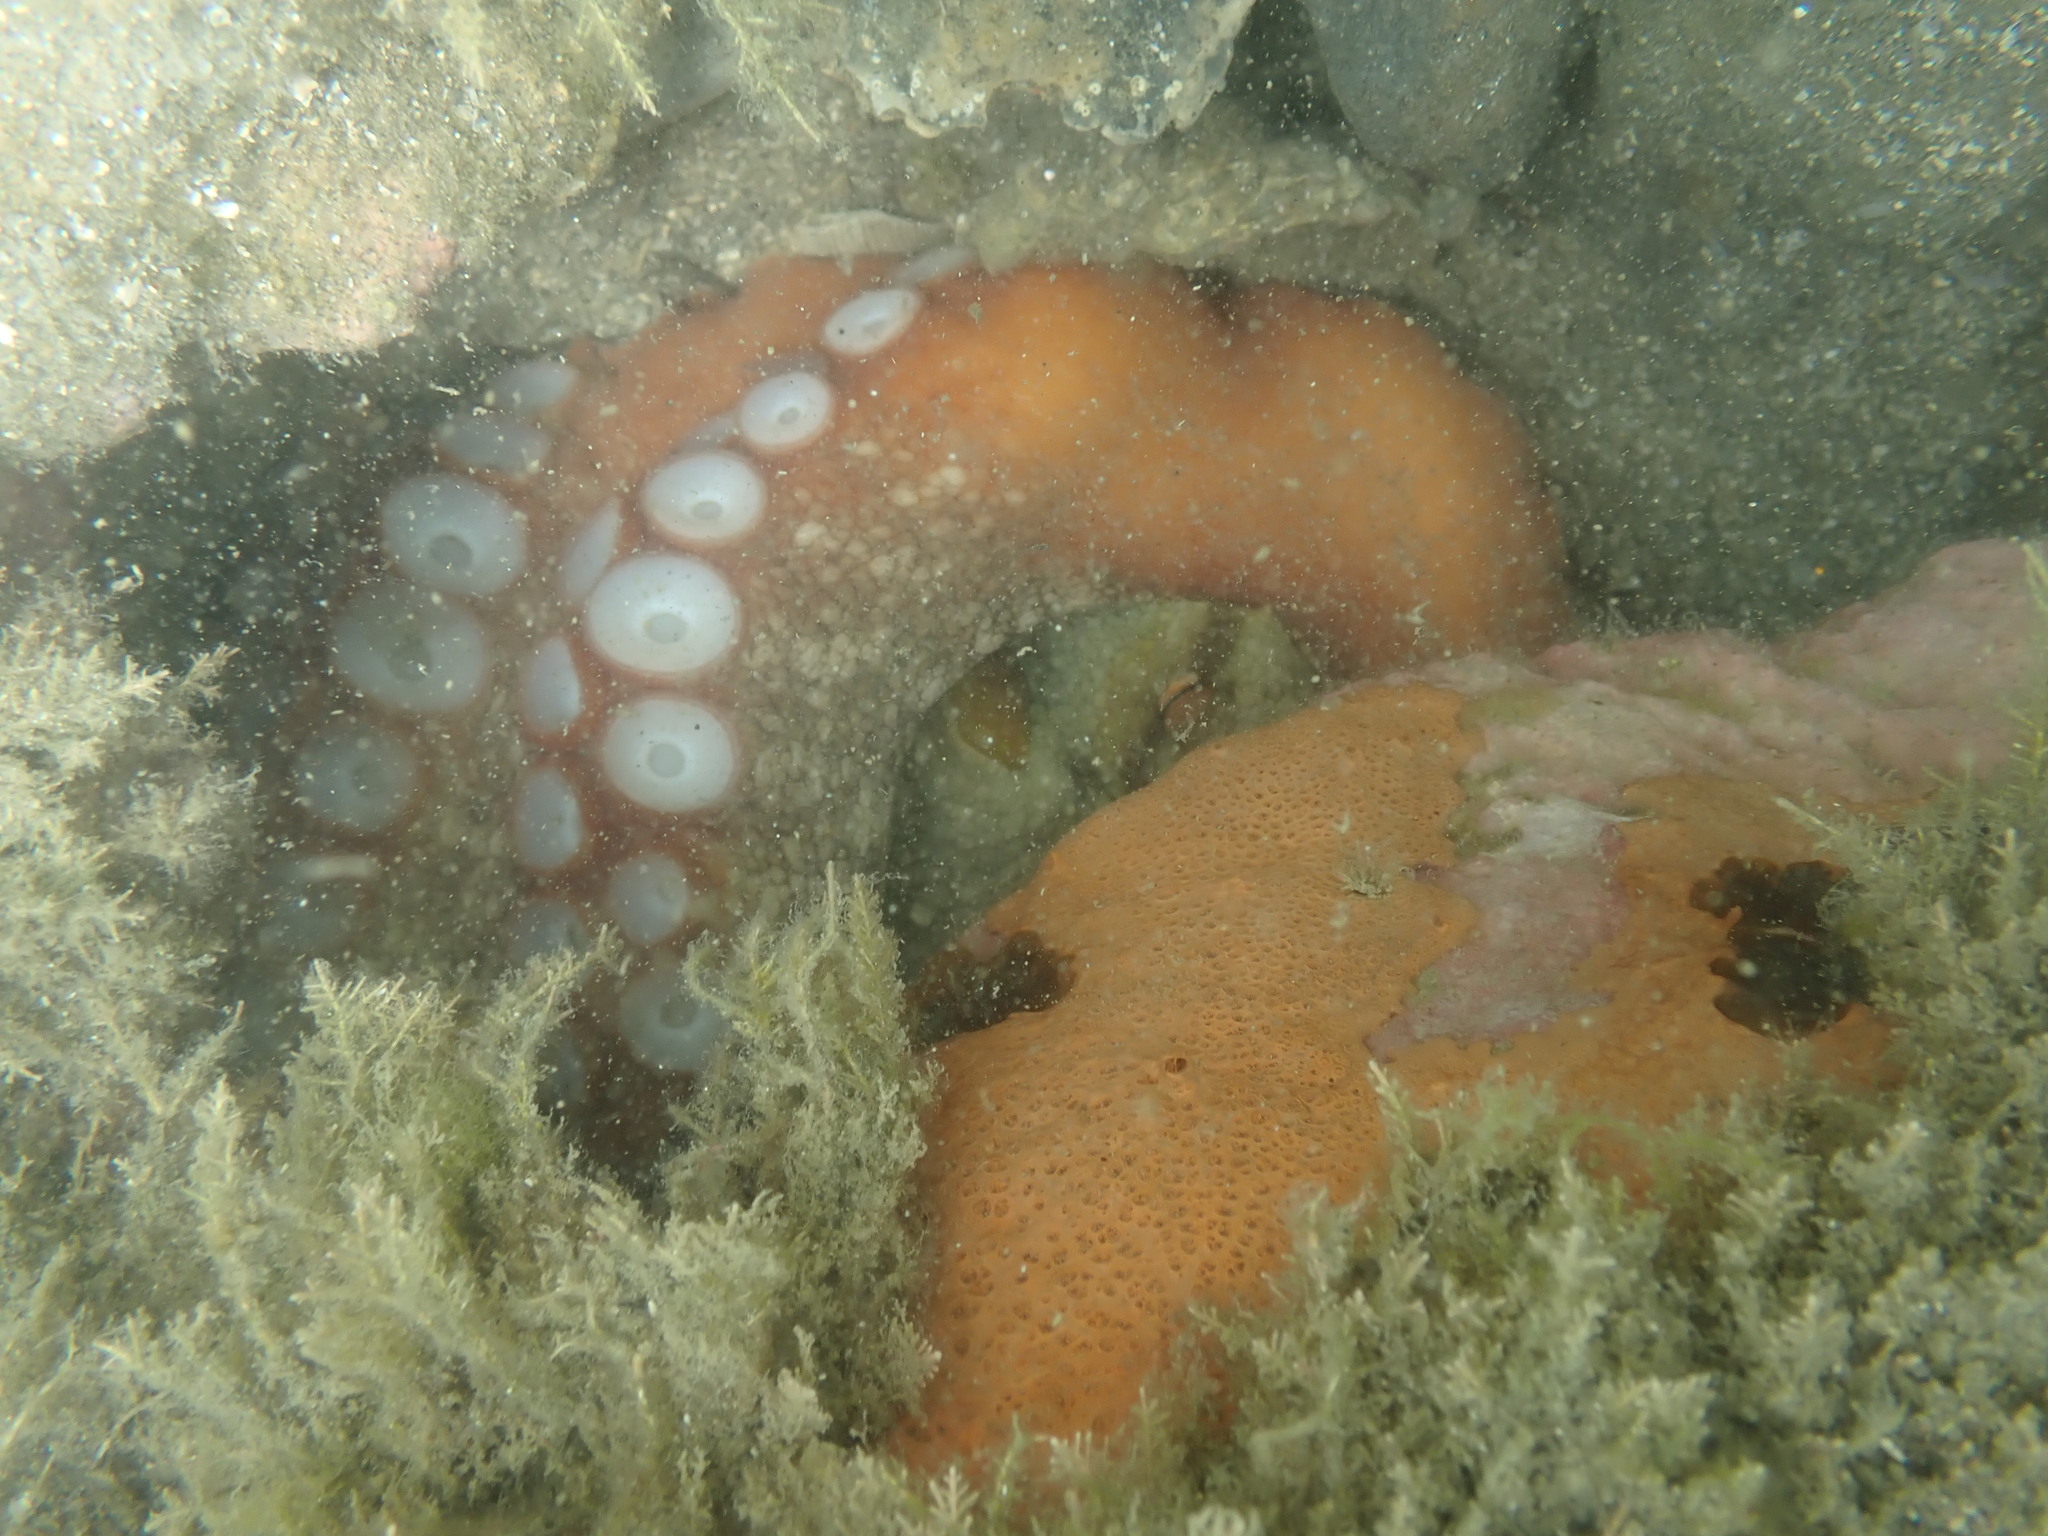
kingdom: Animalia
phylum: Mollusca
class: Cephalopoda
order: Octopoda
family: Octopodidae
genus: Octopus
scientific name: Octopus tetricus
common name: Sydney octopus
